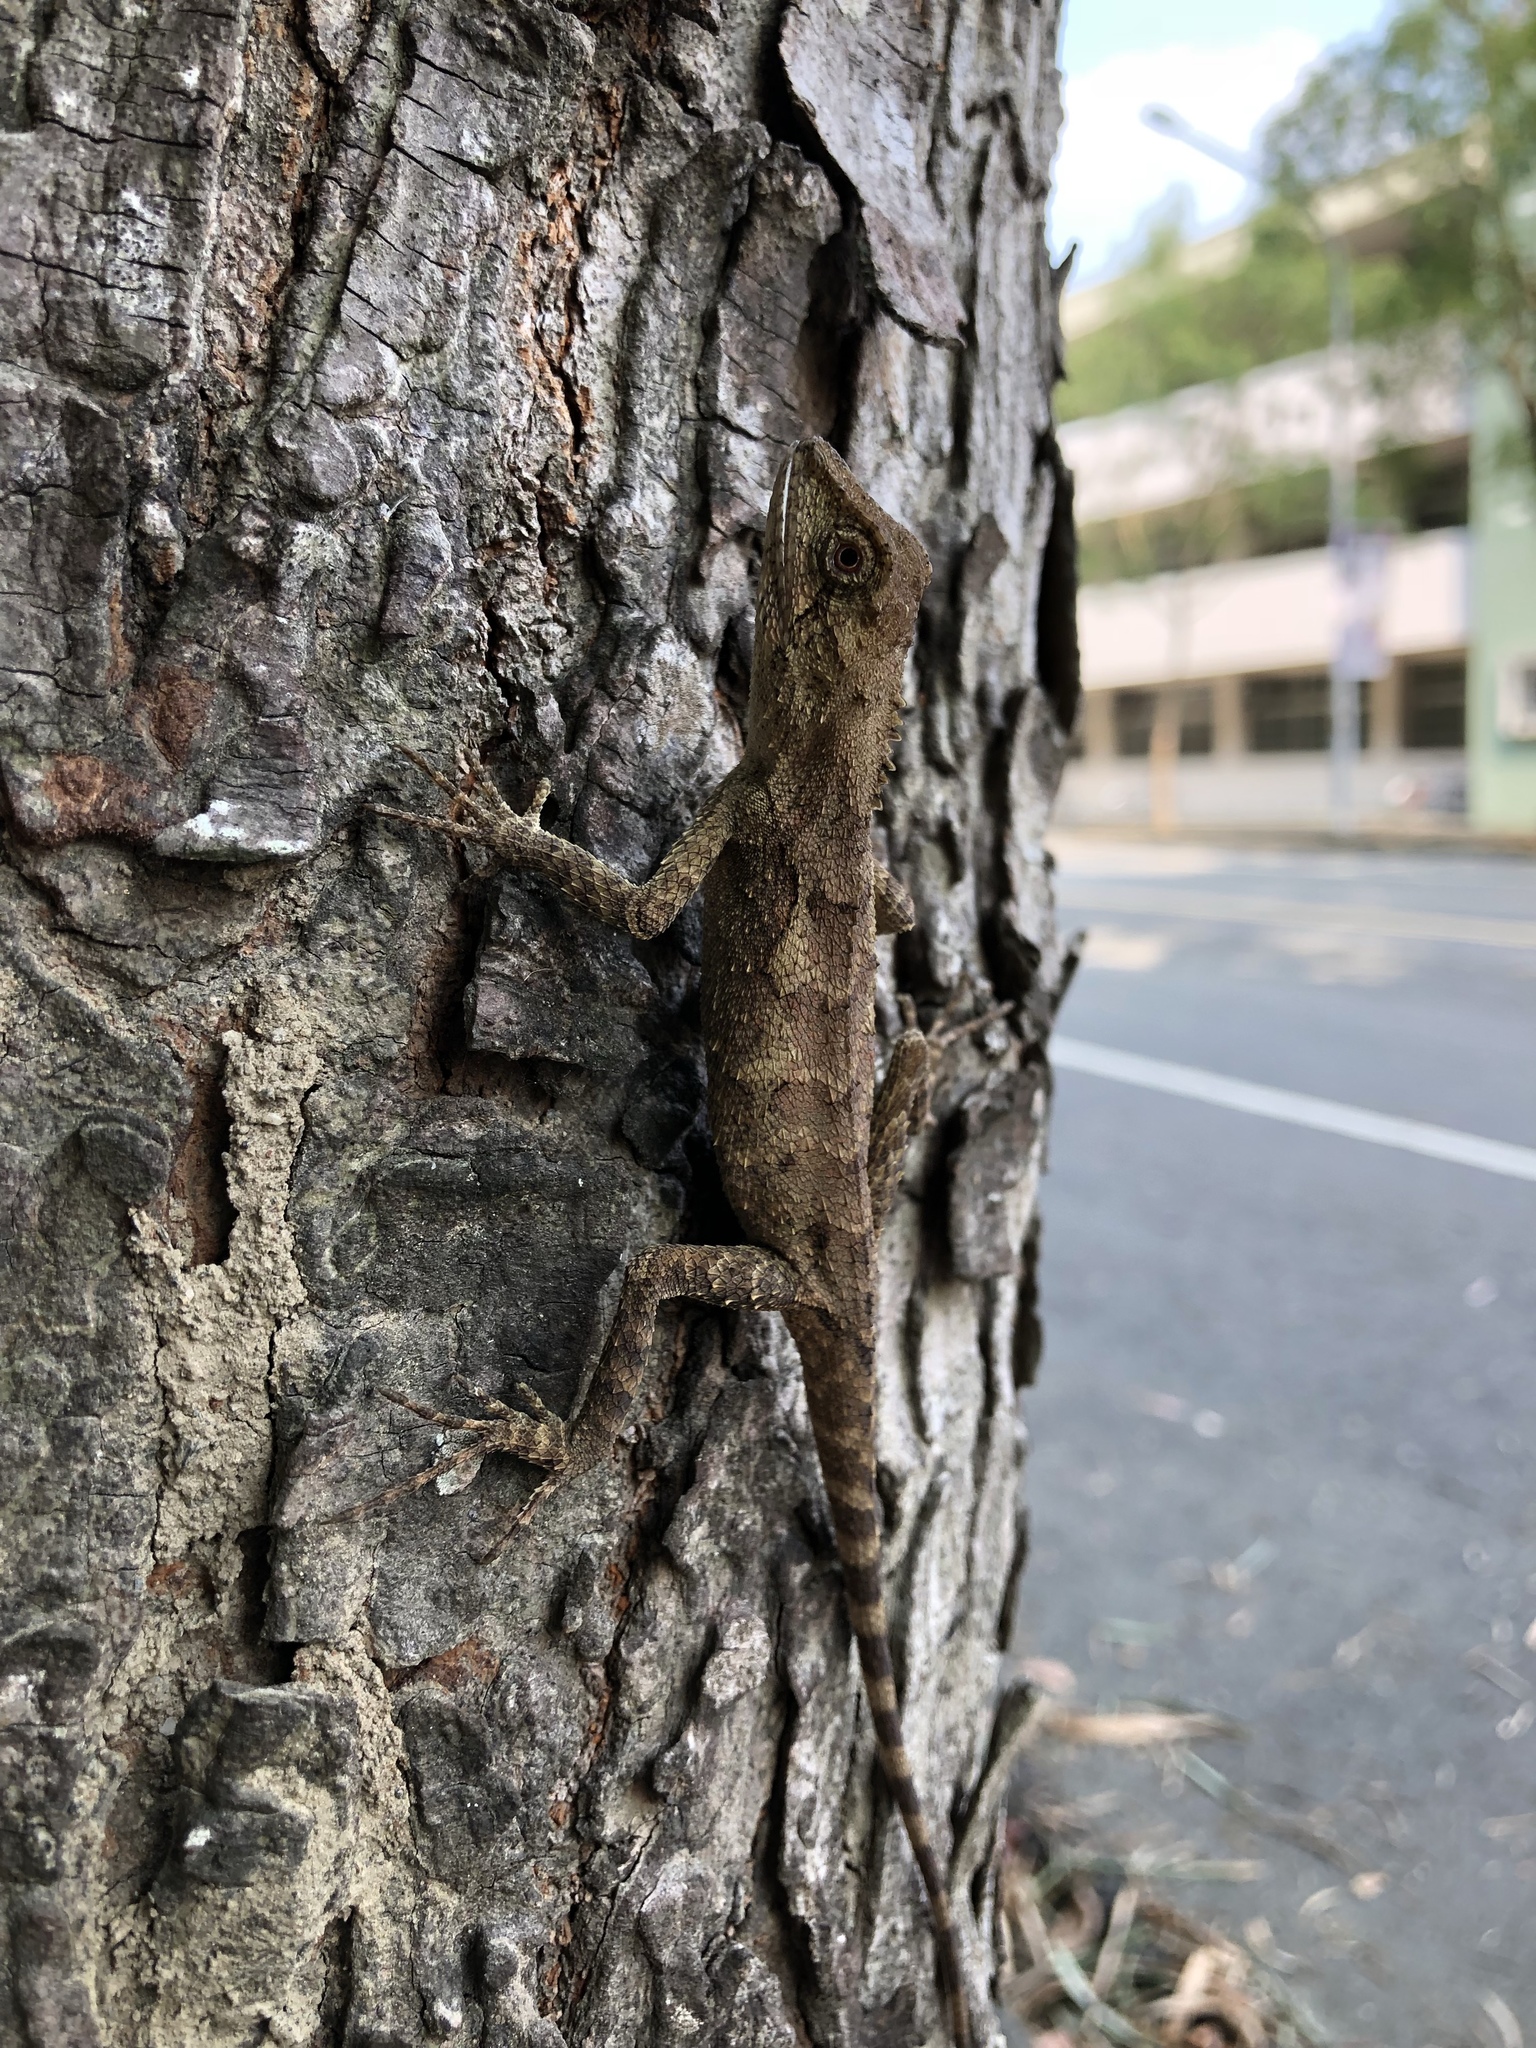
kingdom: Animalia
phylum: Chordata
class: Squamata
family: Agamidae
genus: Diploderma
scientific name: Diploderma swinhonis
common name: Taiwan japalure
